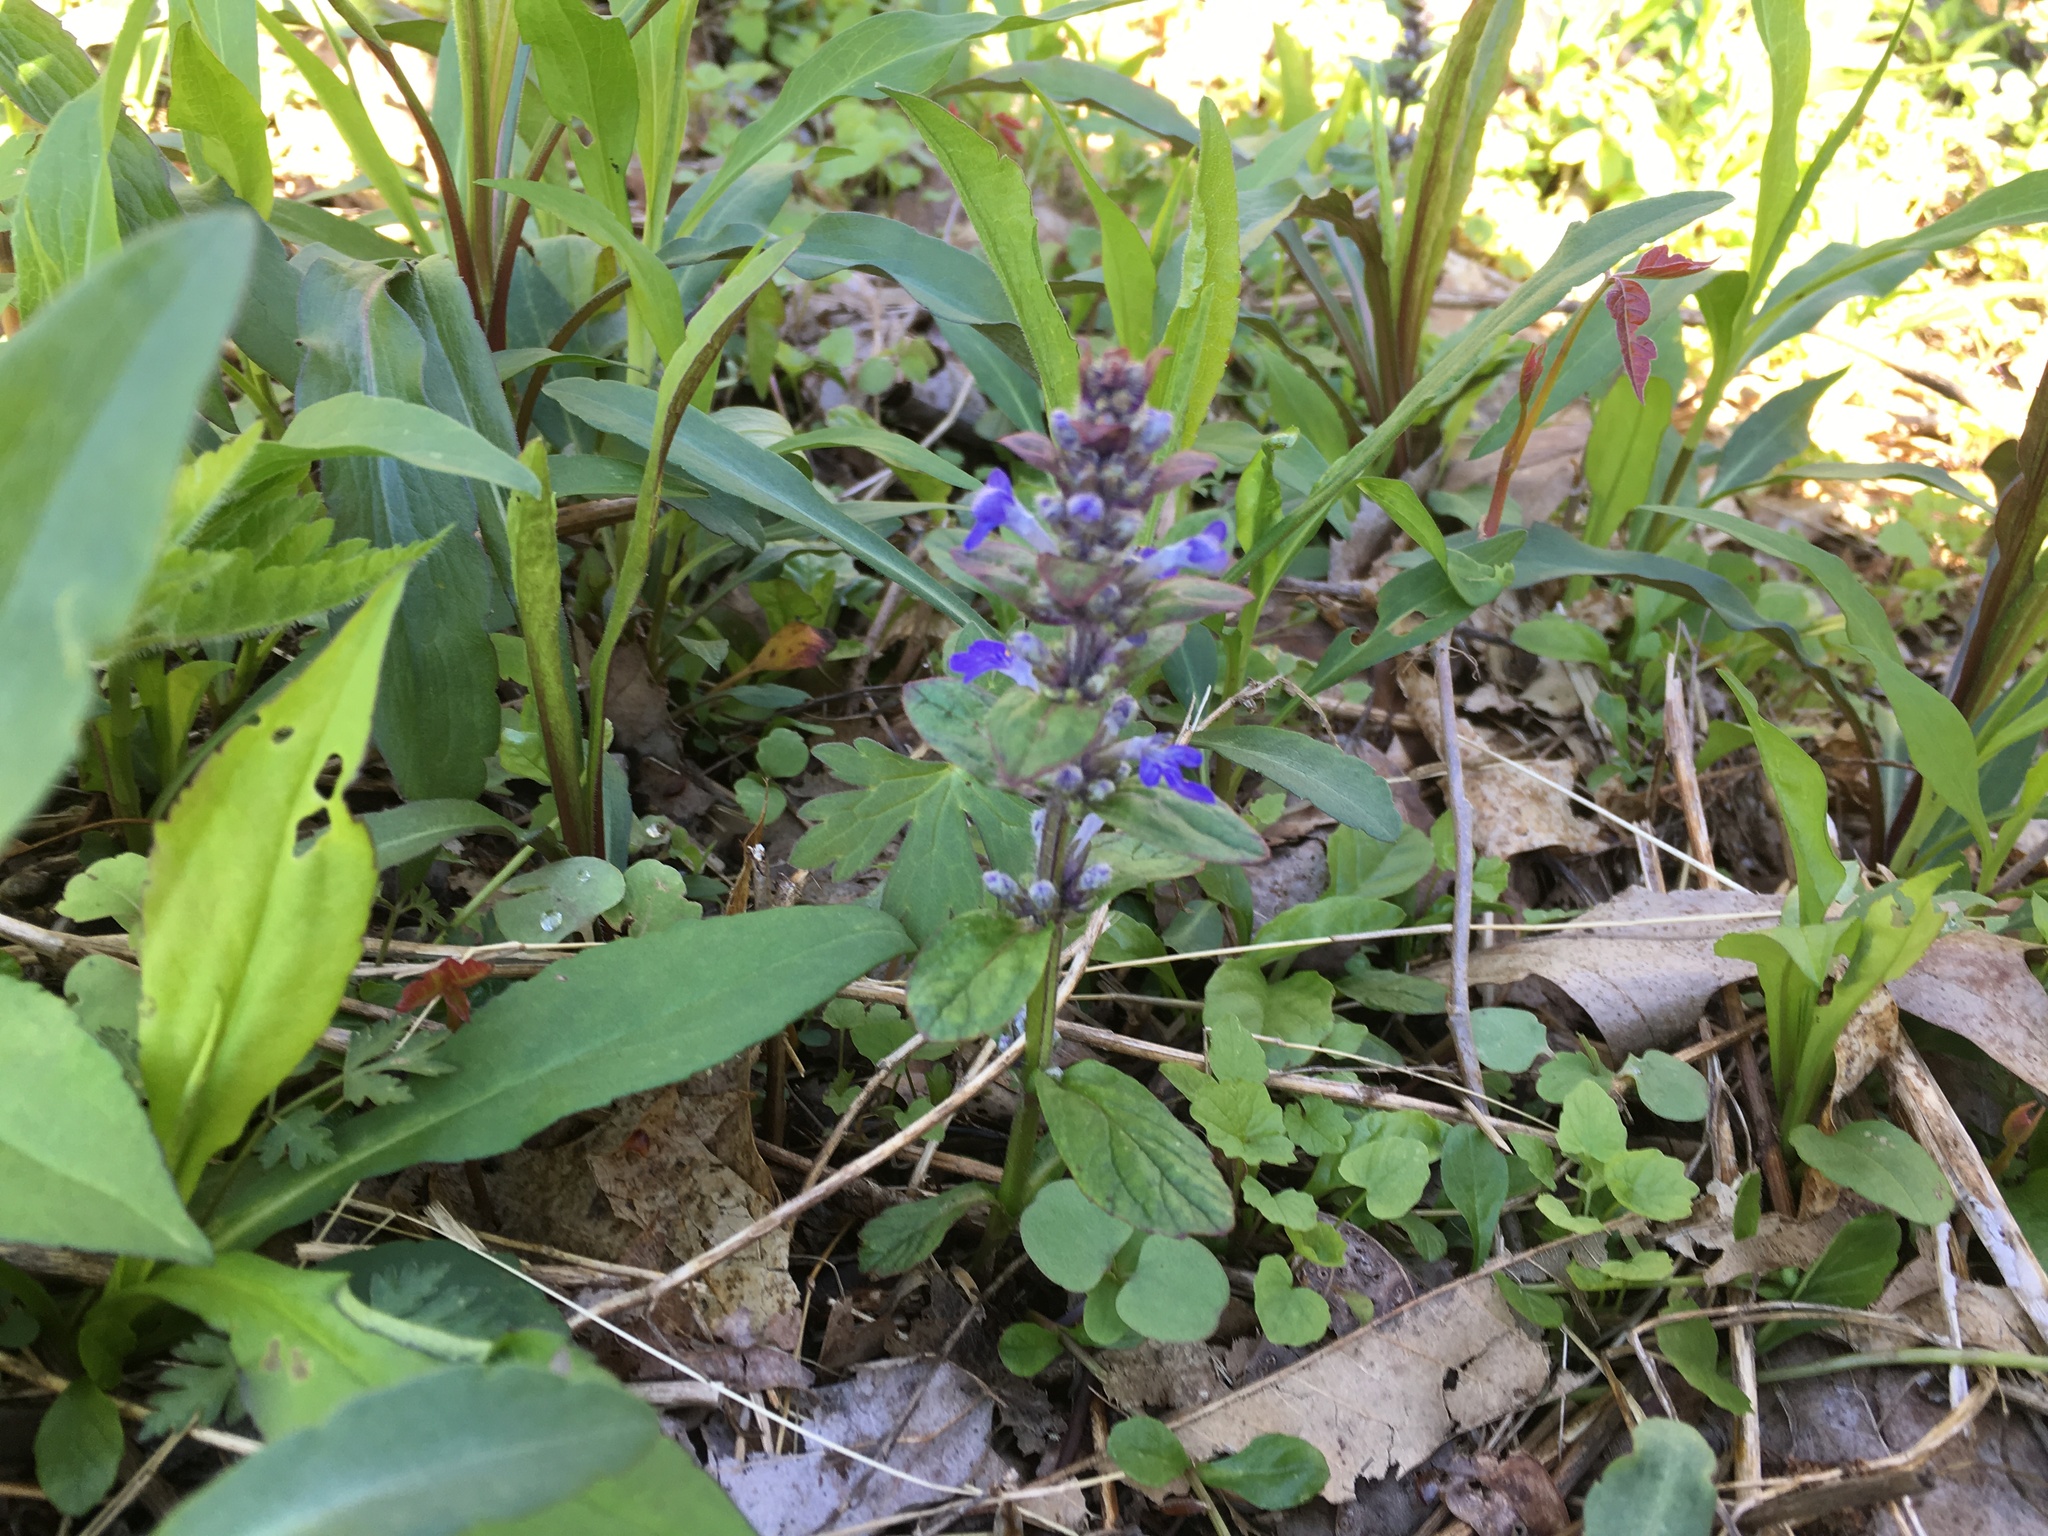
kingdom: Plantae
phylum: Tracheophyta
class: Magnoliopsida
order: Lamiales
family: Lamiaceae
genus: Ajuga
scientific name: Ajuga reptans
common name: Bugle
